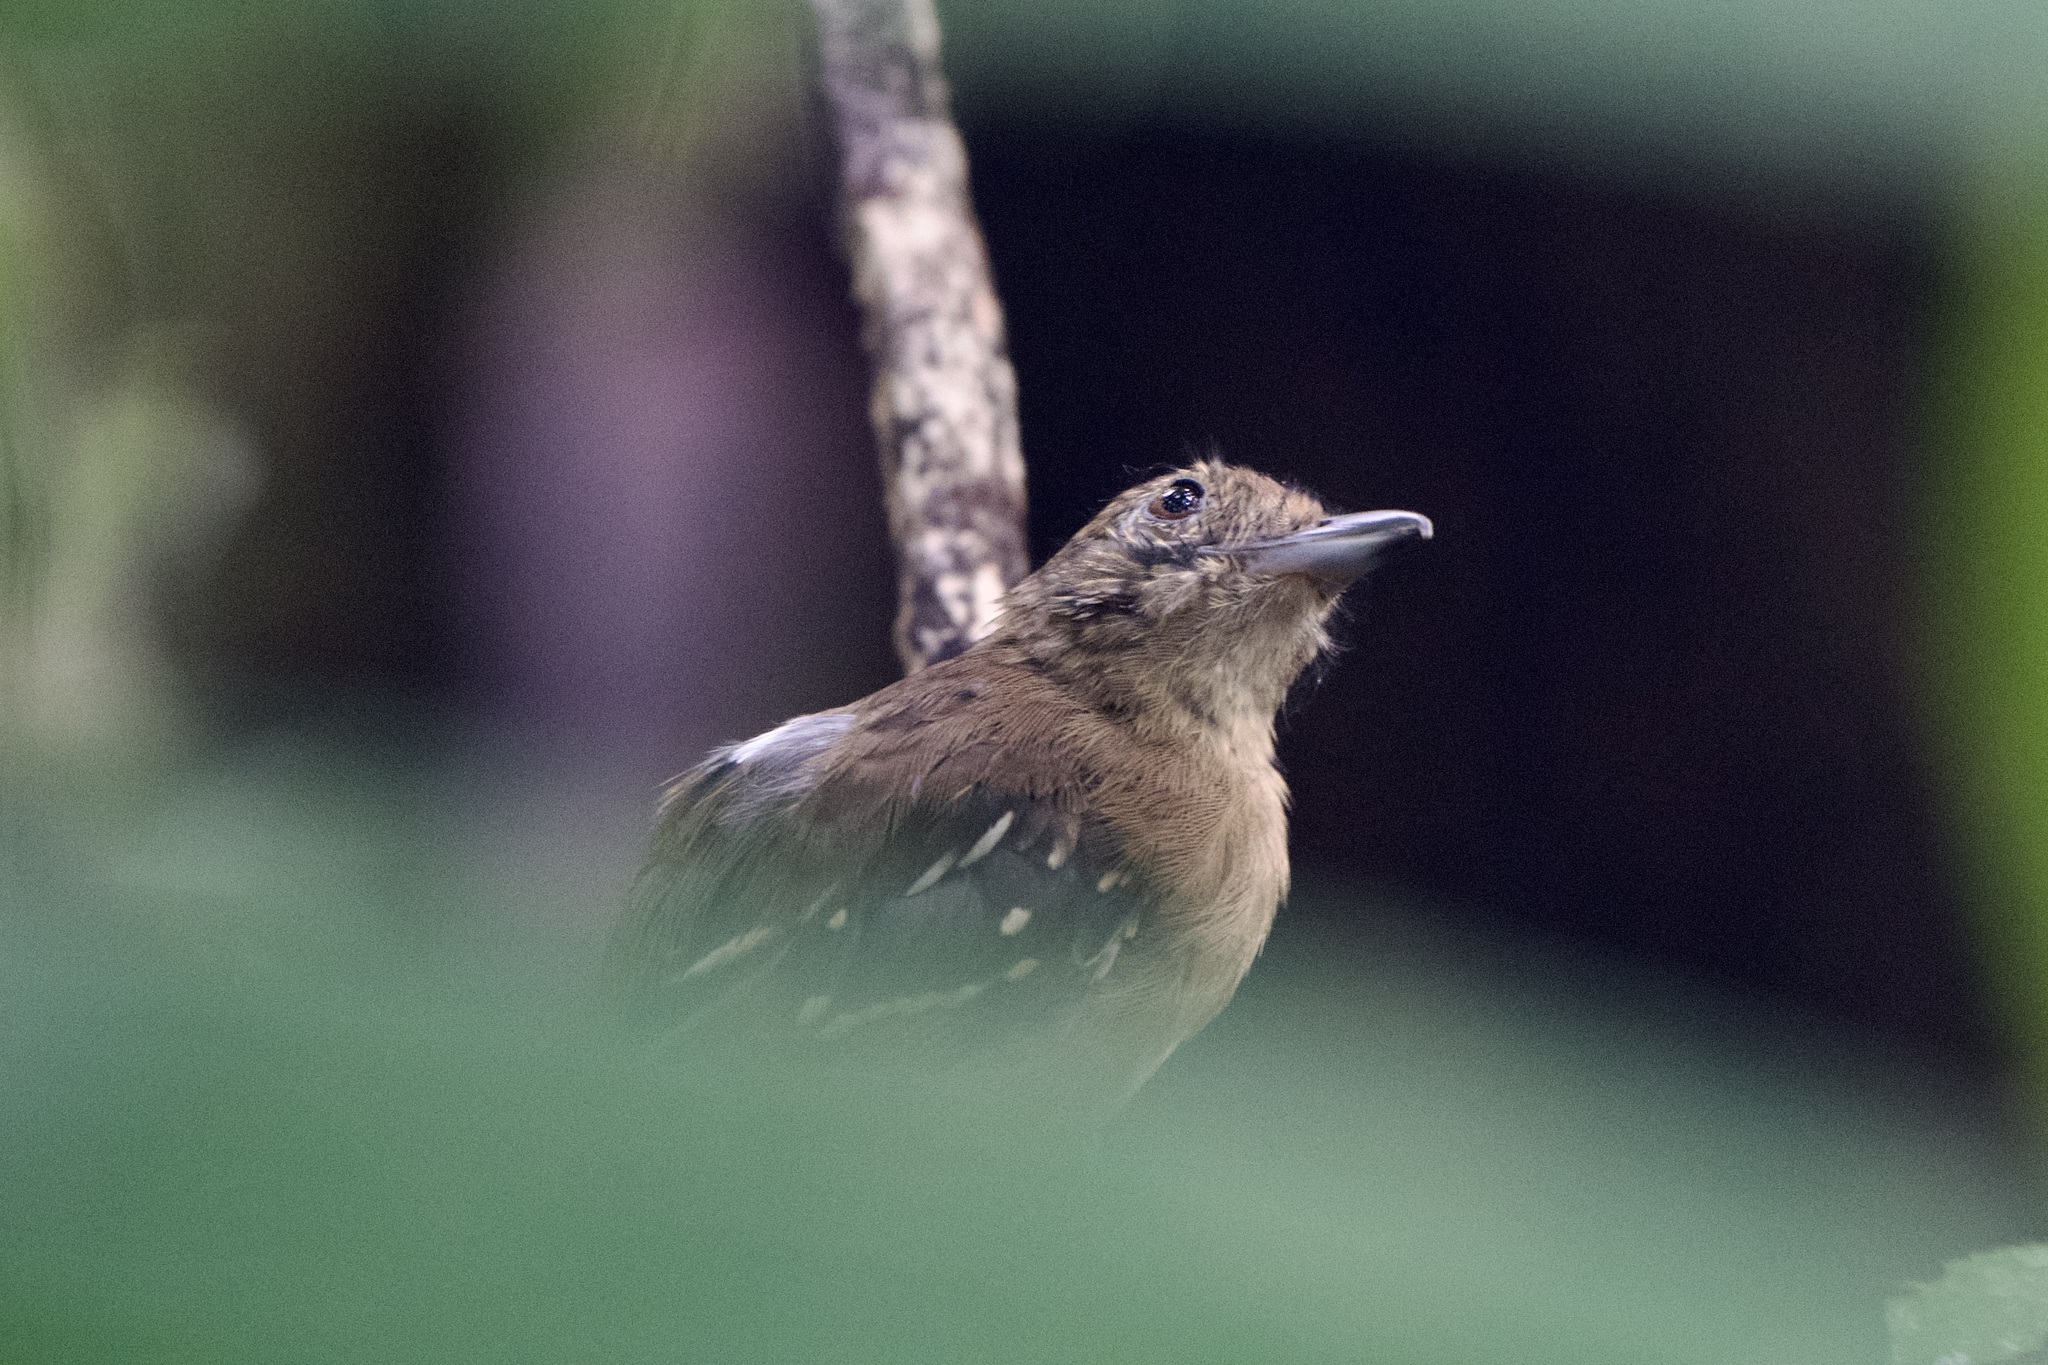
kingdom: Animalia
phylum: Chordata
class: Aves
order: Passeriformes
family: Thamnophilidae
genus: Thamnophilus
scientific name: Thamnophilus atrinucha
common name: Black-crowned antshrike
